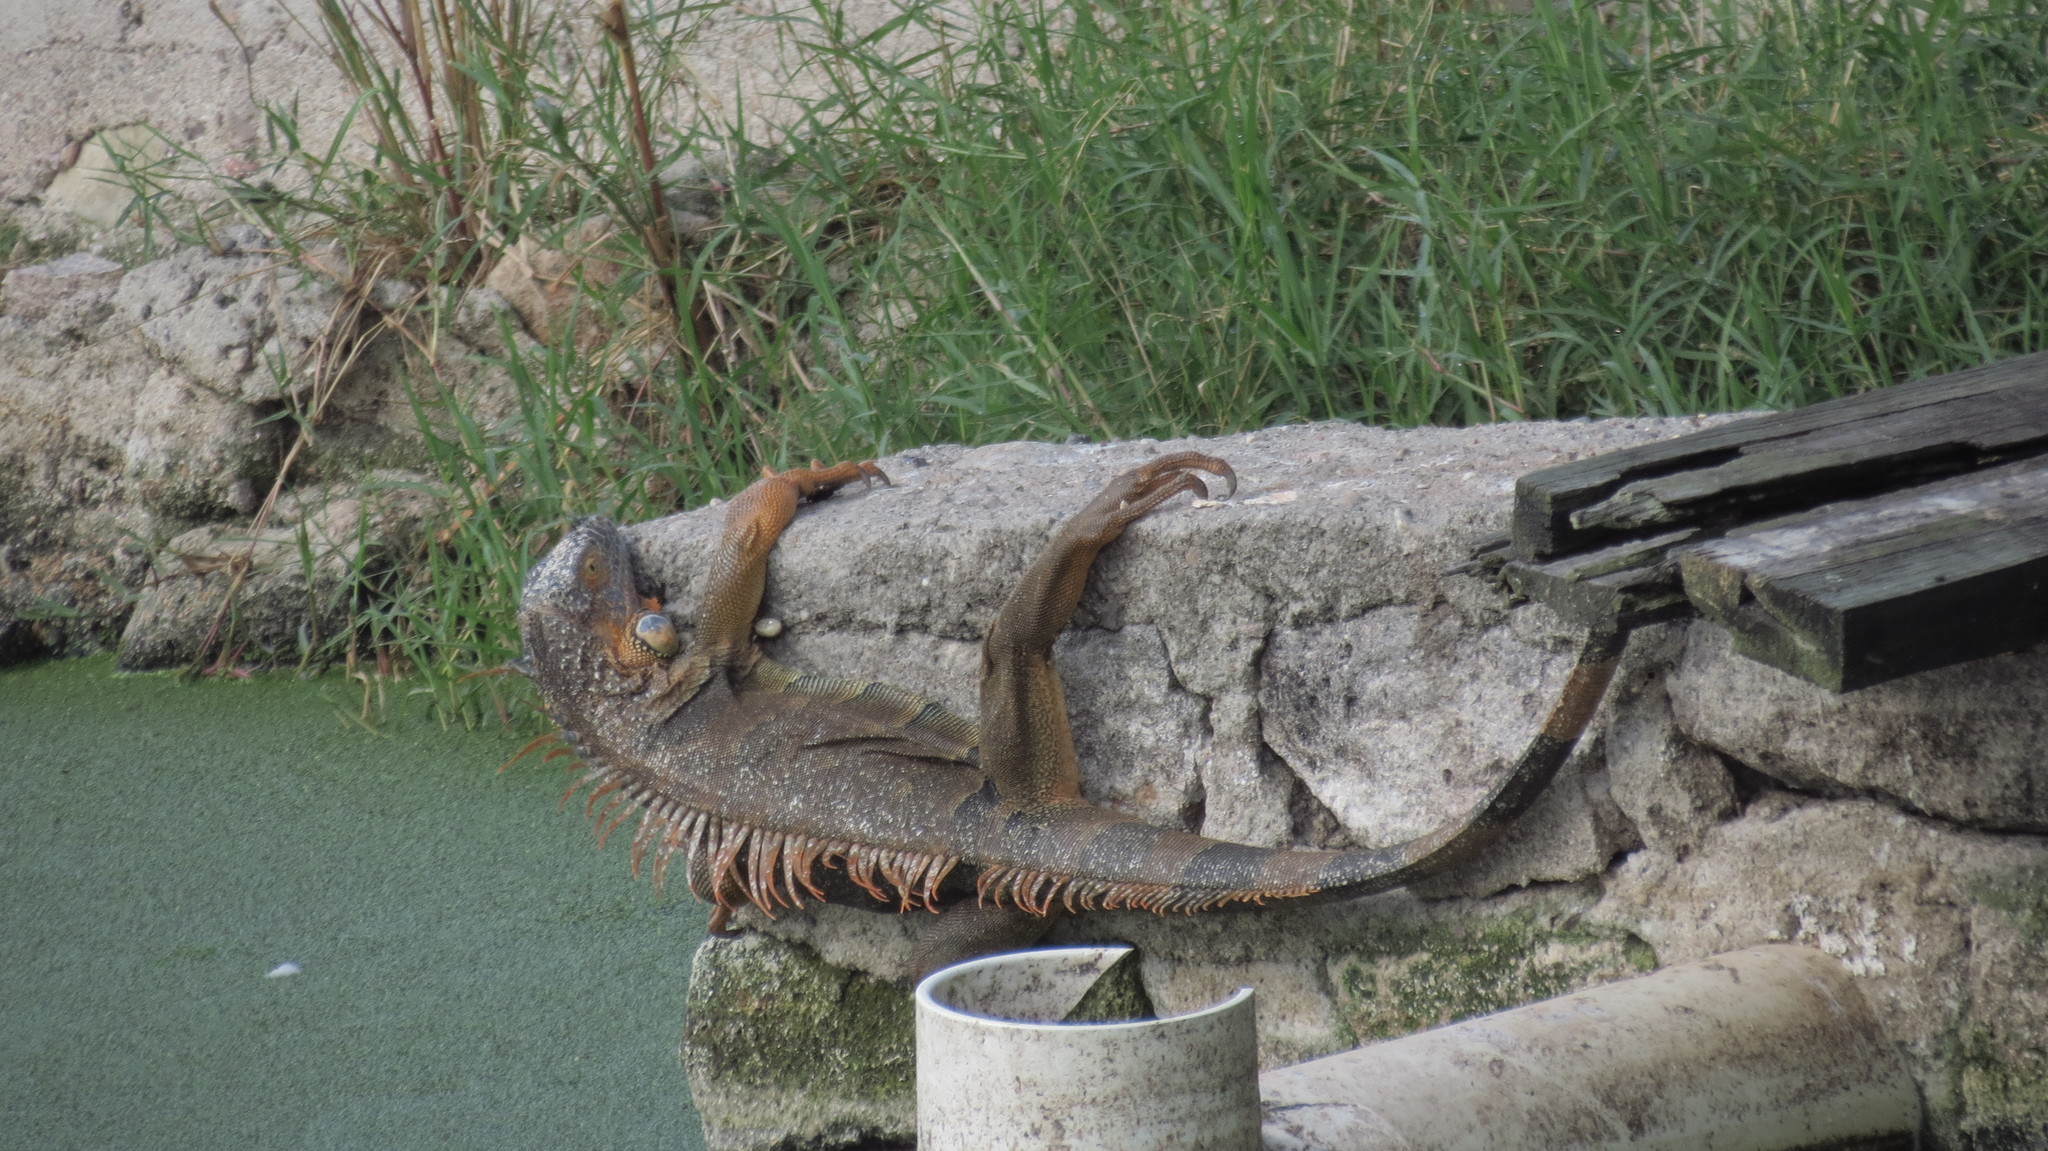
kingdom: Animalia
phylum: Chordata
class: Squamata
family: Iguanidae
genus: Iguana
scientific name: Iguana iguana
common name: Green iguana
